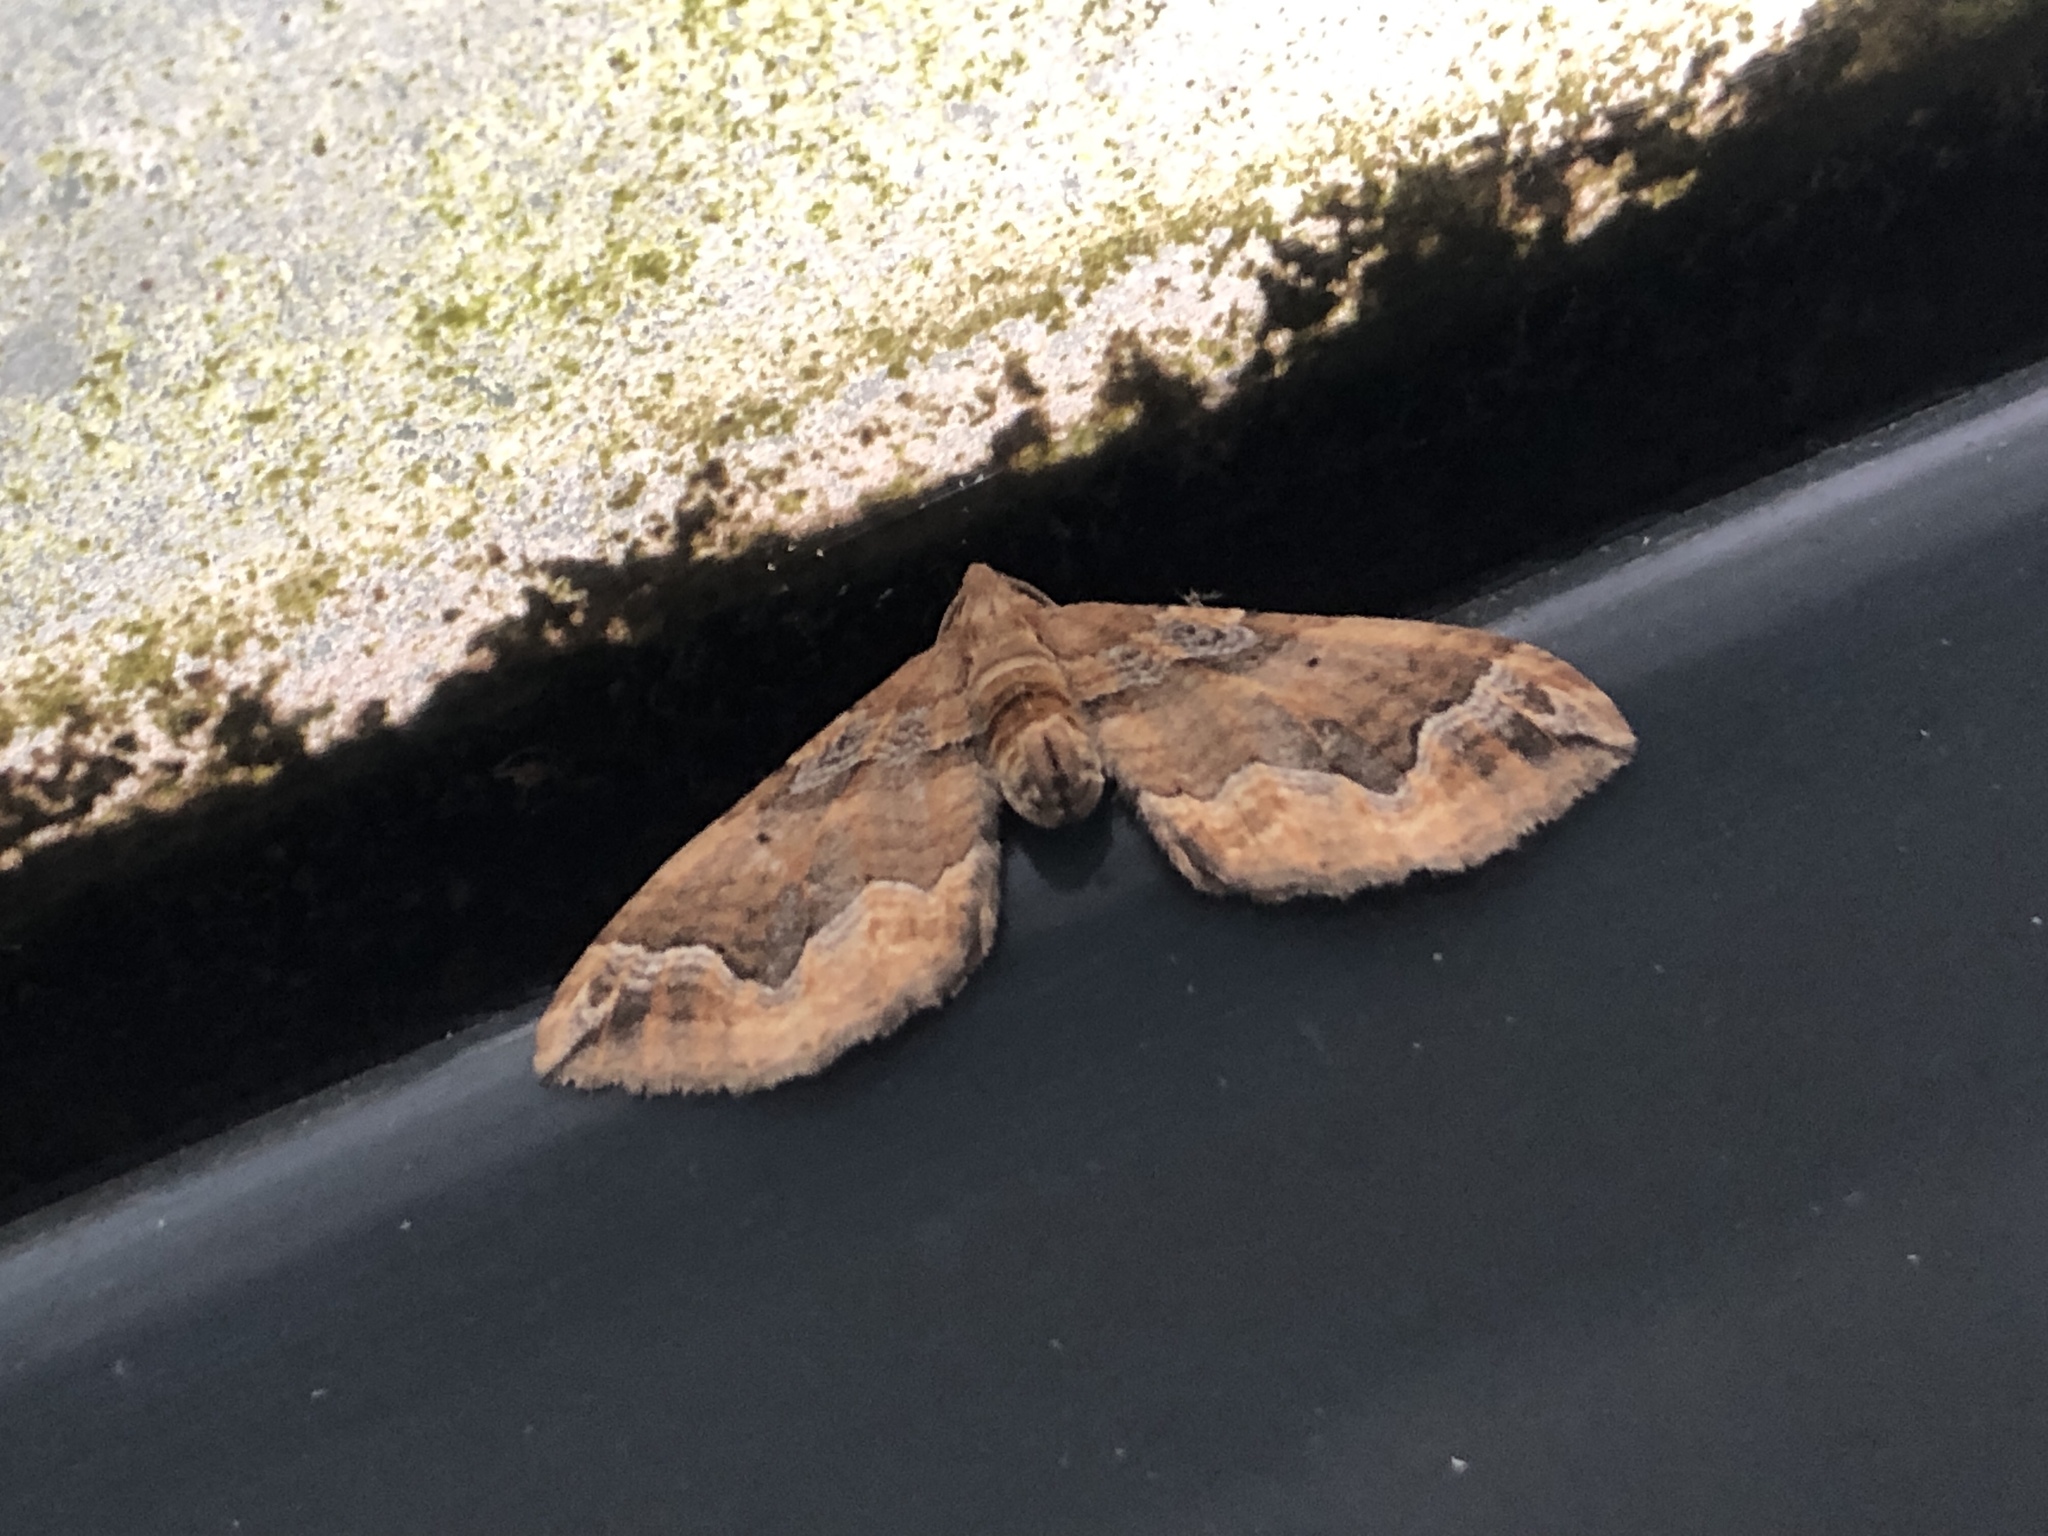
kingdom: Animalia
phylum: Arthropoda
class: Insecta
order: Lepidoptera
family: Geometridae
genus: Pelurga
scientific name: Pelurga comitata
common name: Dark spinach
